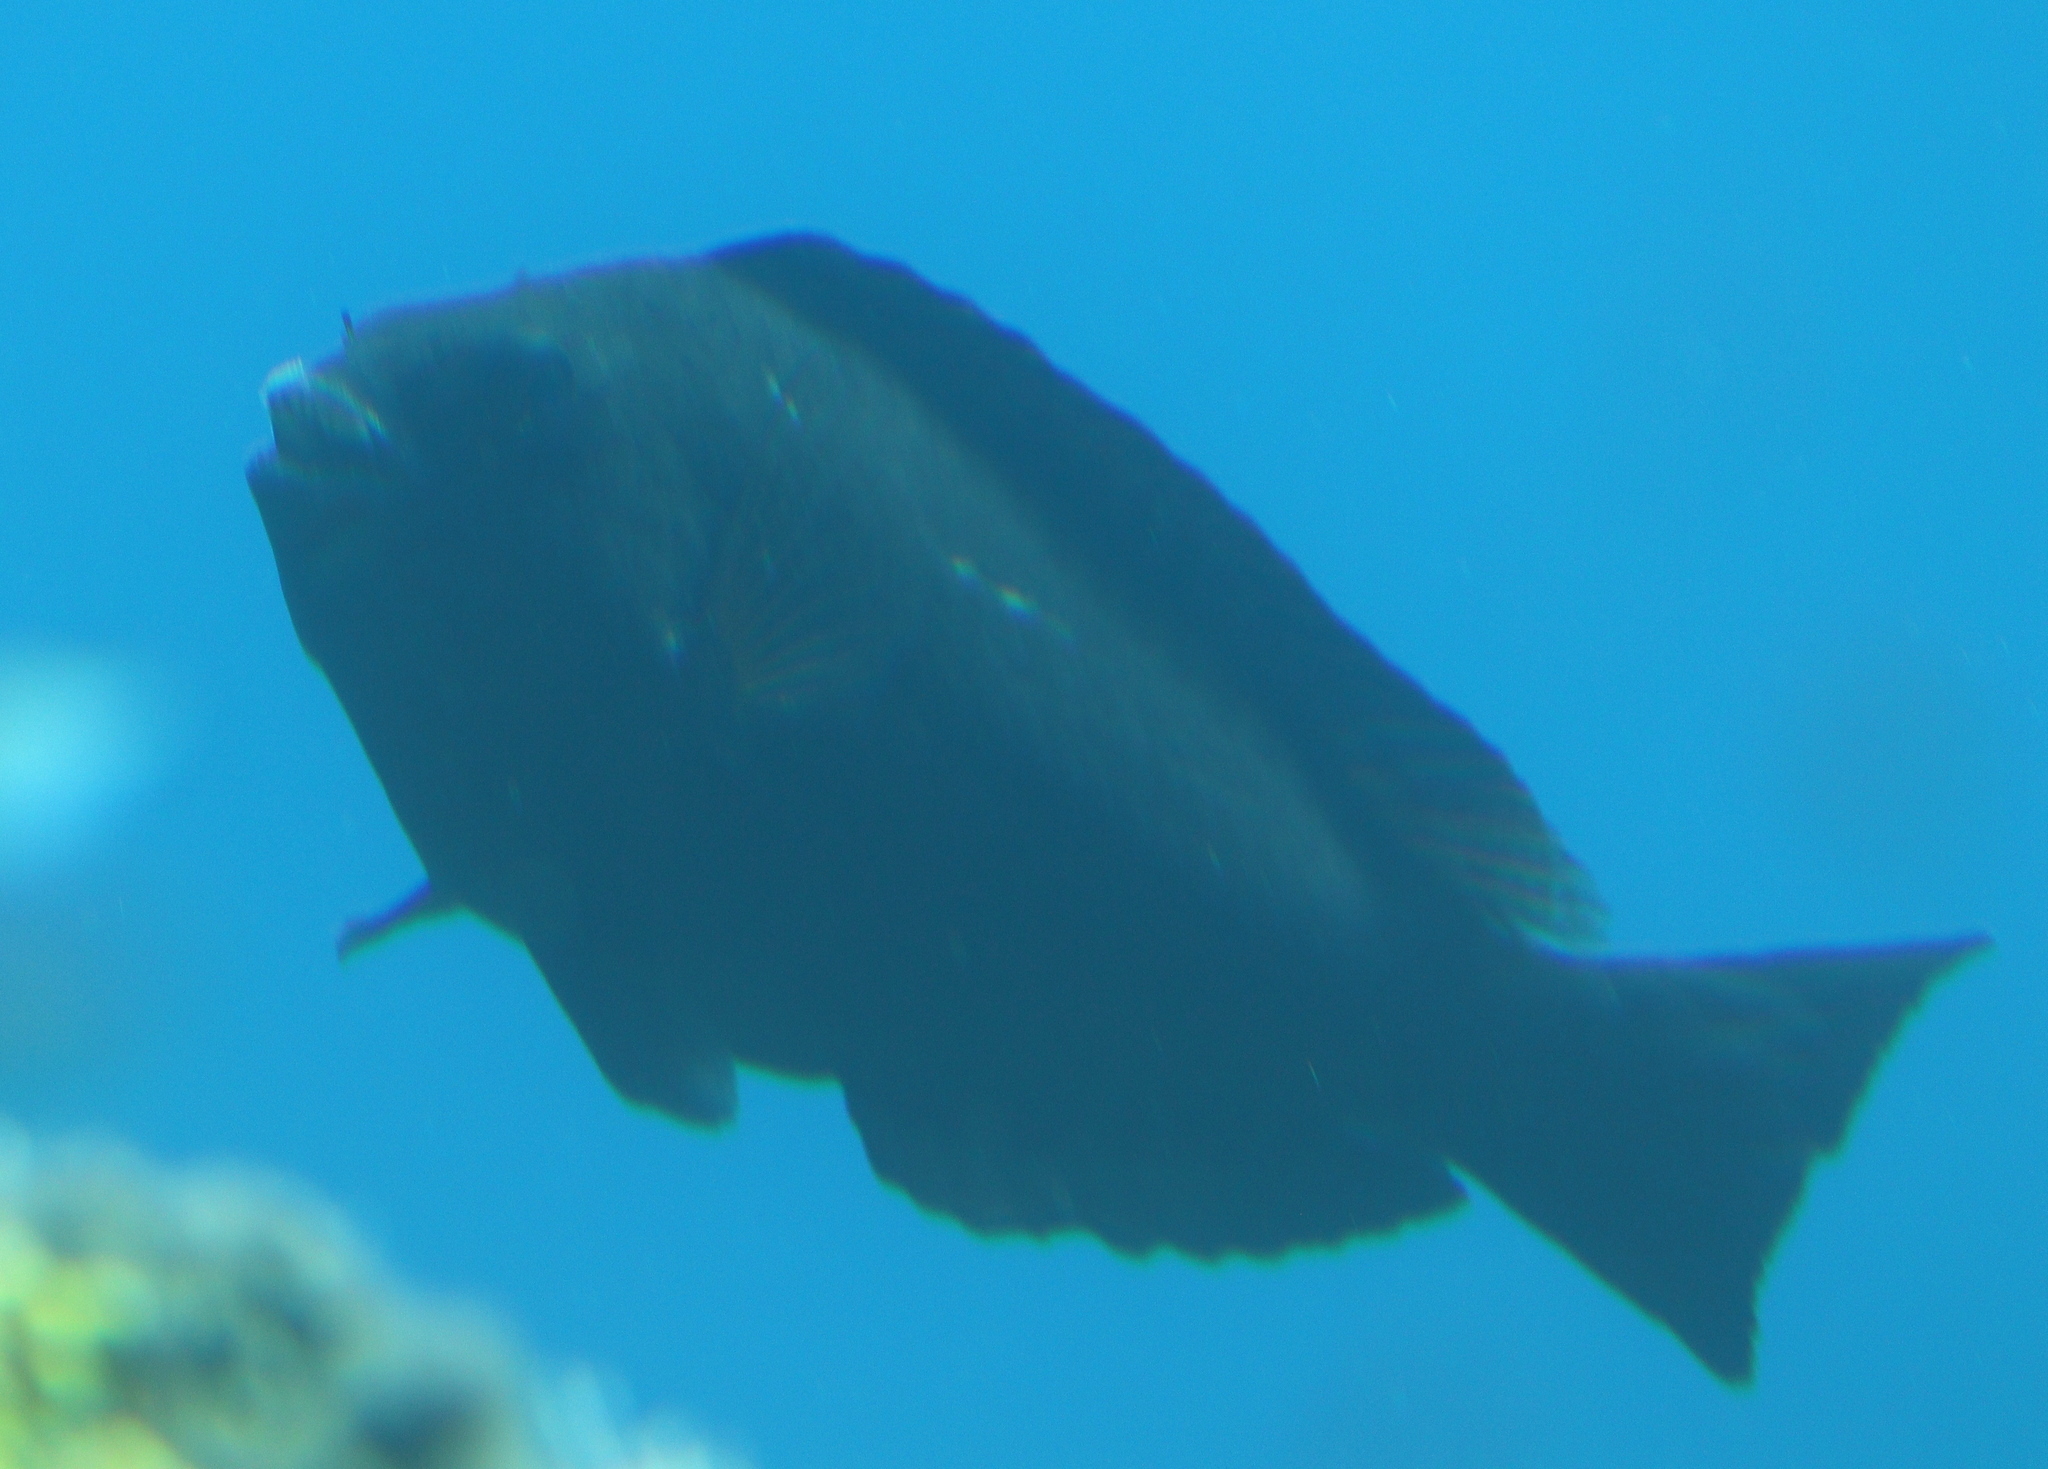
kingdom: Animalia
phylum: Chordata
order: Perciformes
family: Scaridae
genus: Calotomus
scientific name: Calotomus viridescens
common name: Dotted parrotfish
